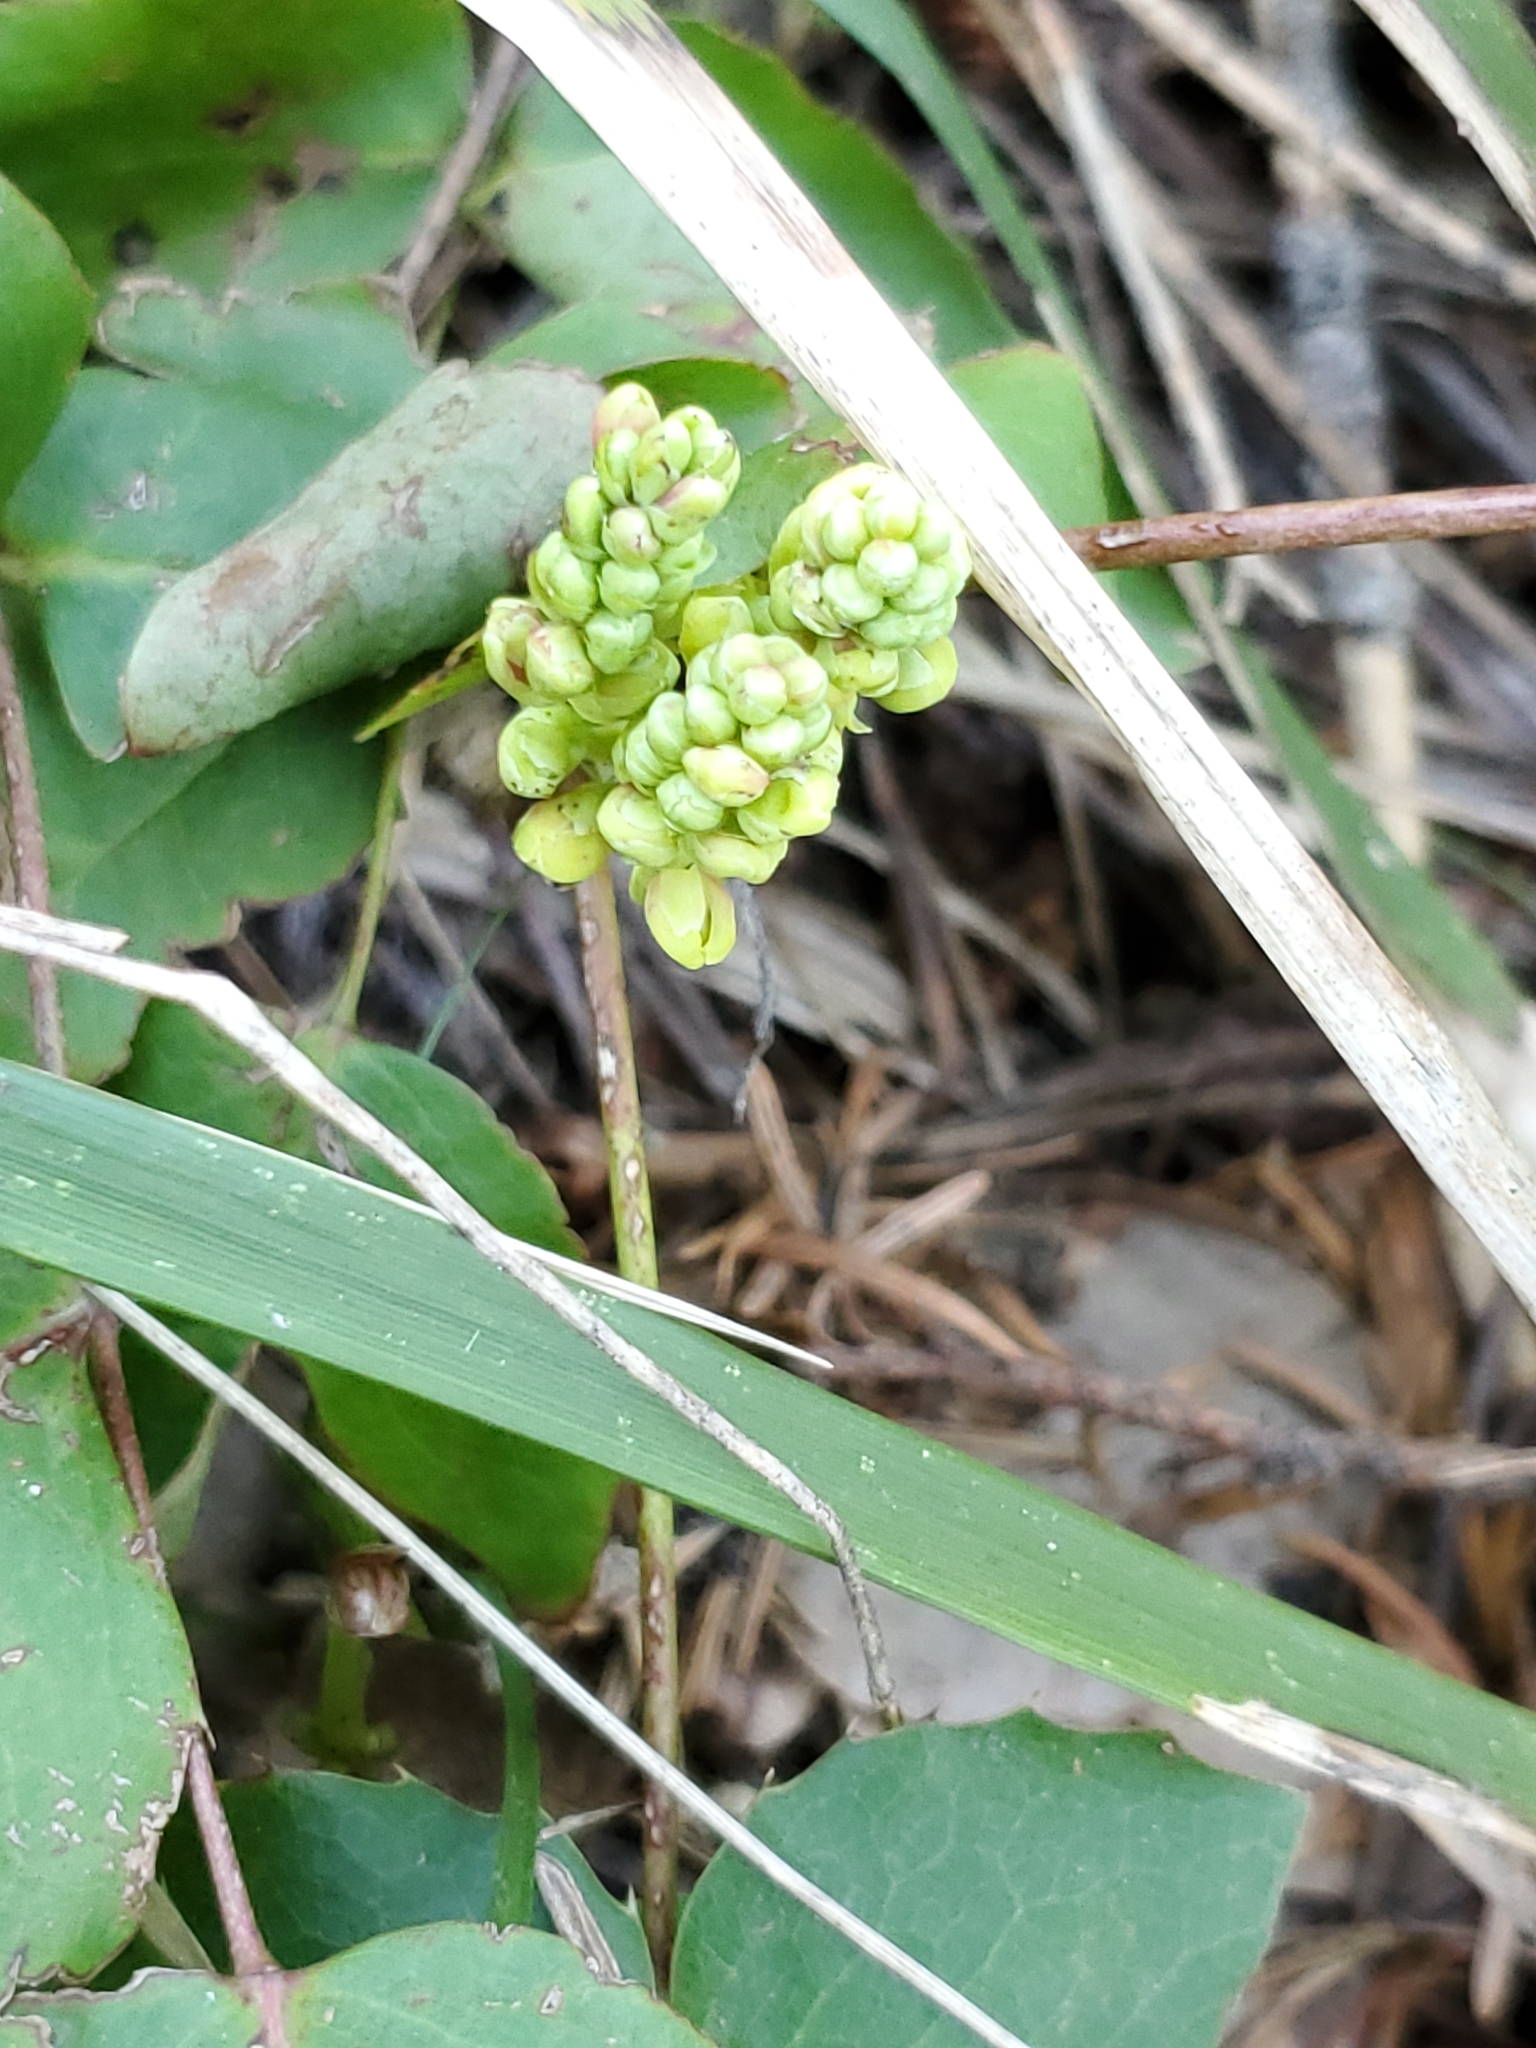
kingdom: Plantae
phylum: Tracheophyta
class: Magnoliopsida
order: Ranunculales
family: Berberidaceae
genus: Mahonia
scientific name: Mahonia repens
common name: Creeping oregon-grape
